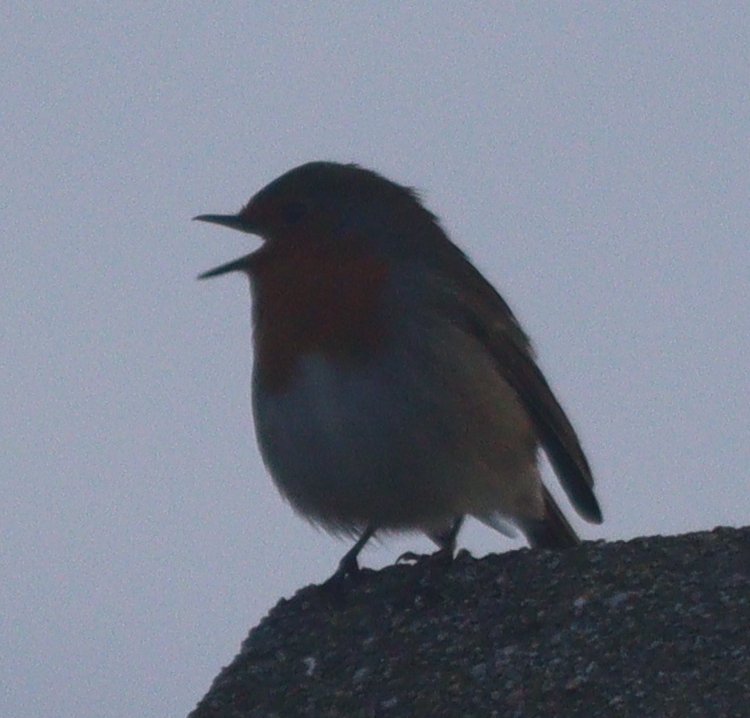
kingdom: Animalia
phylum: Chordata
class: Aves
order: Passeriformes
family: Muscicapidae
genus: Erithacus
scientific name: Erithacus rubecula
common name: European robin
